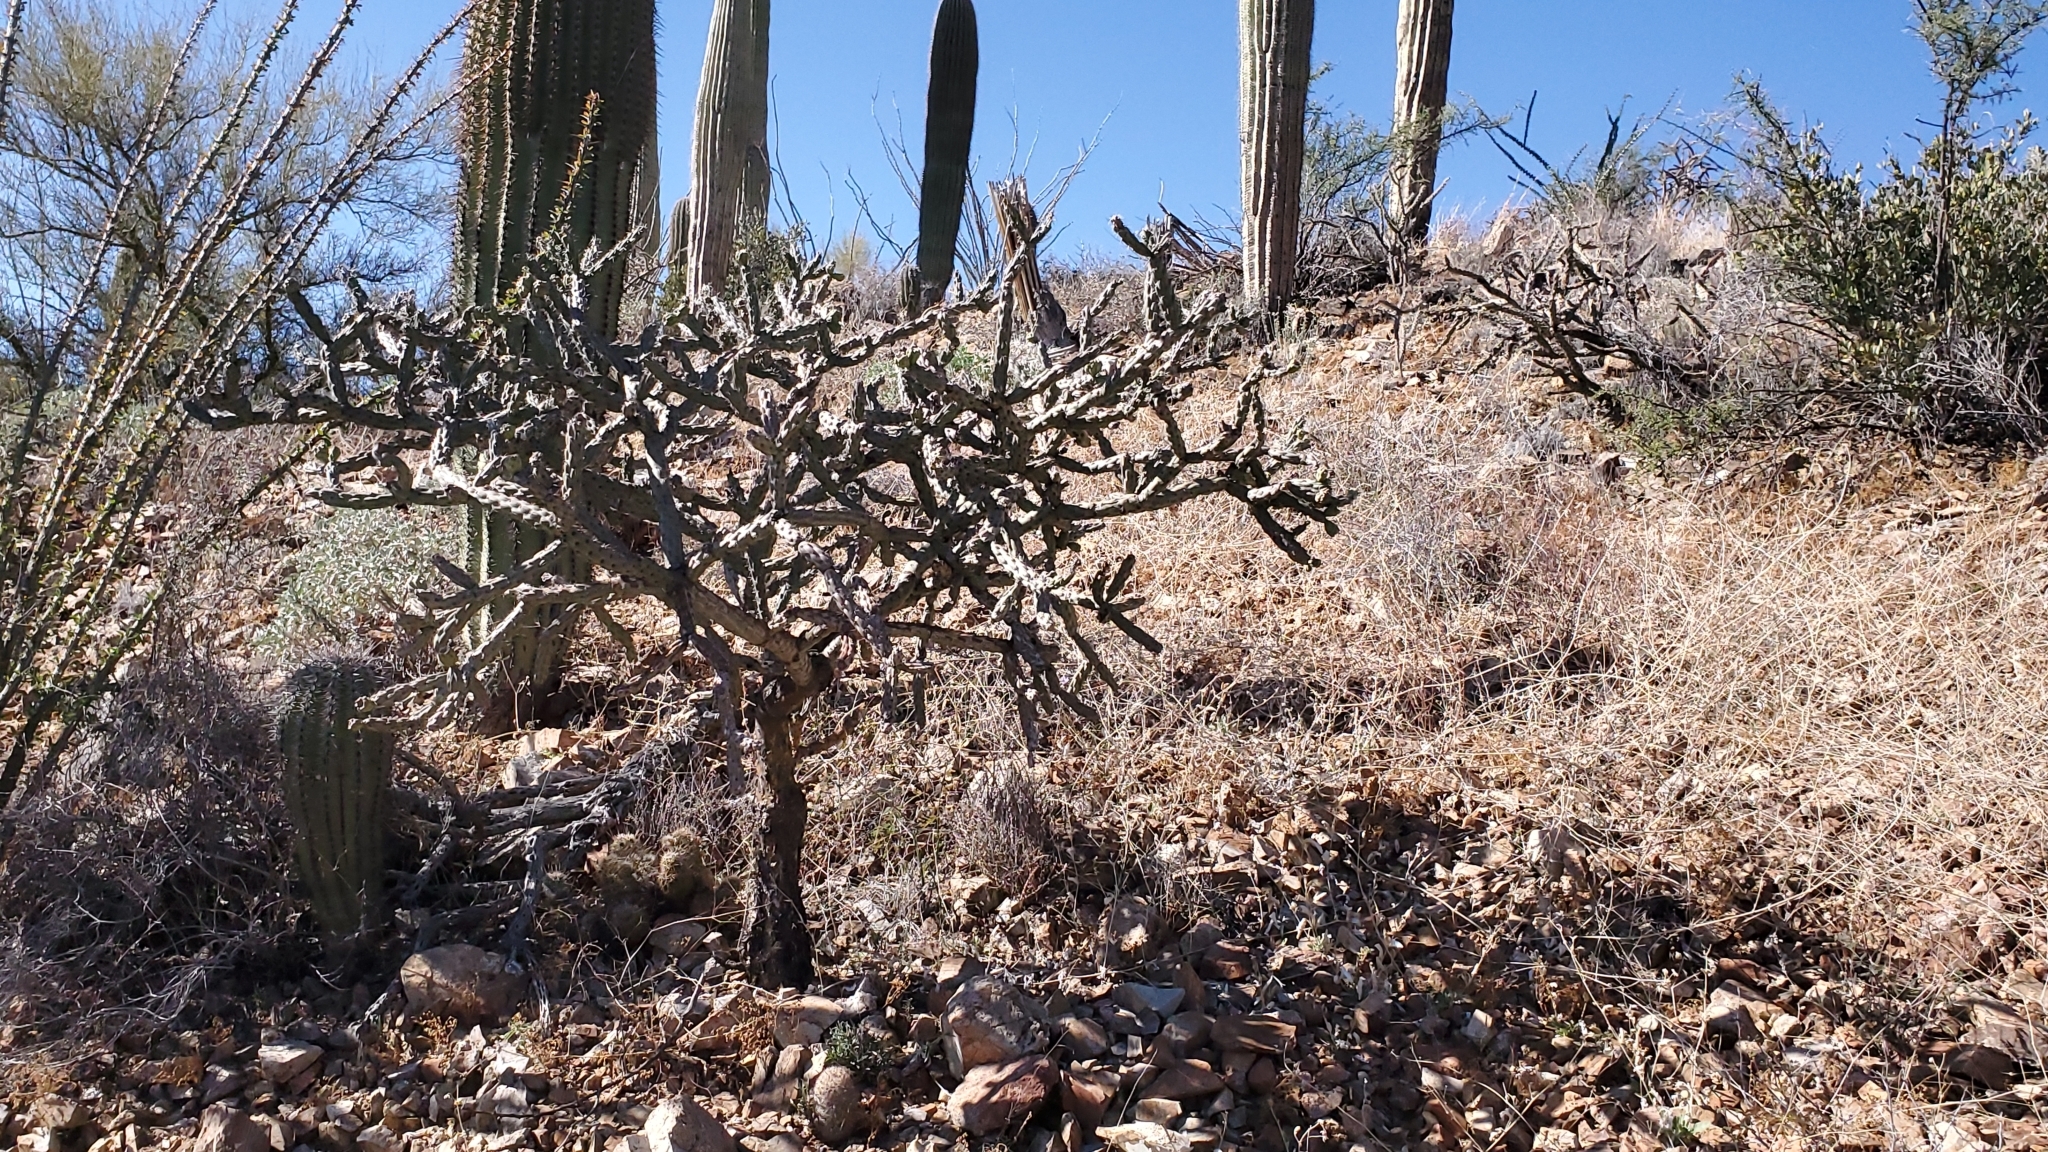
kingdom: Plantae
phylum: Tracheophyta
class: Magnoliopsida
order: Caryophyllales
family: Cactaceae
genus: Cylindropuntia
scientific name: Cylindropuntia thurberi
